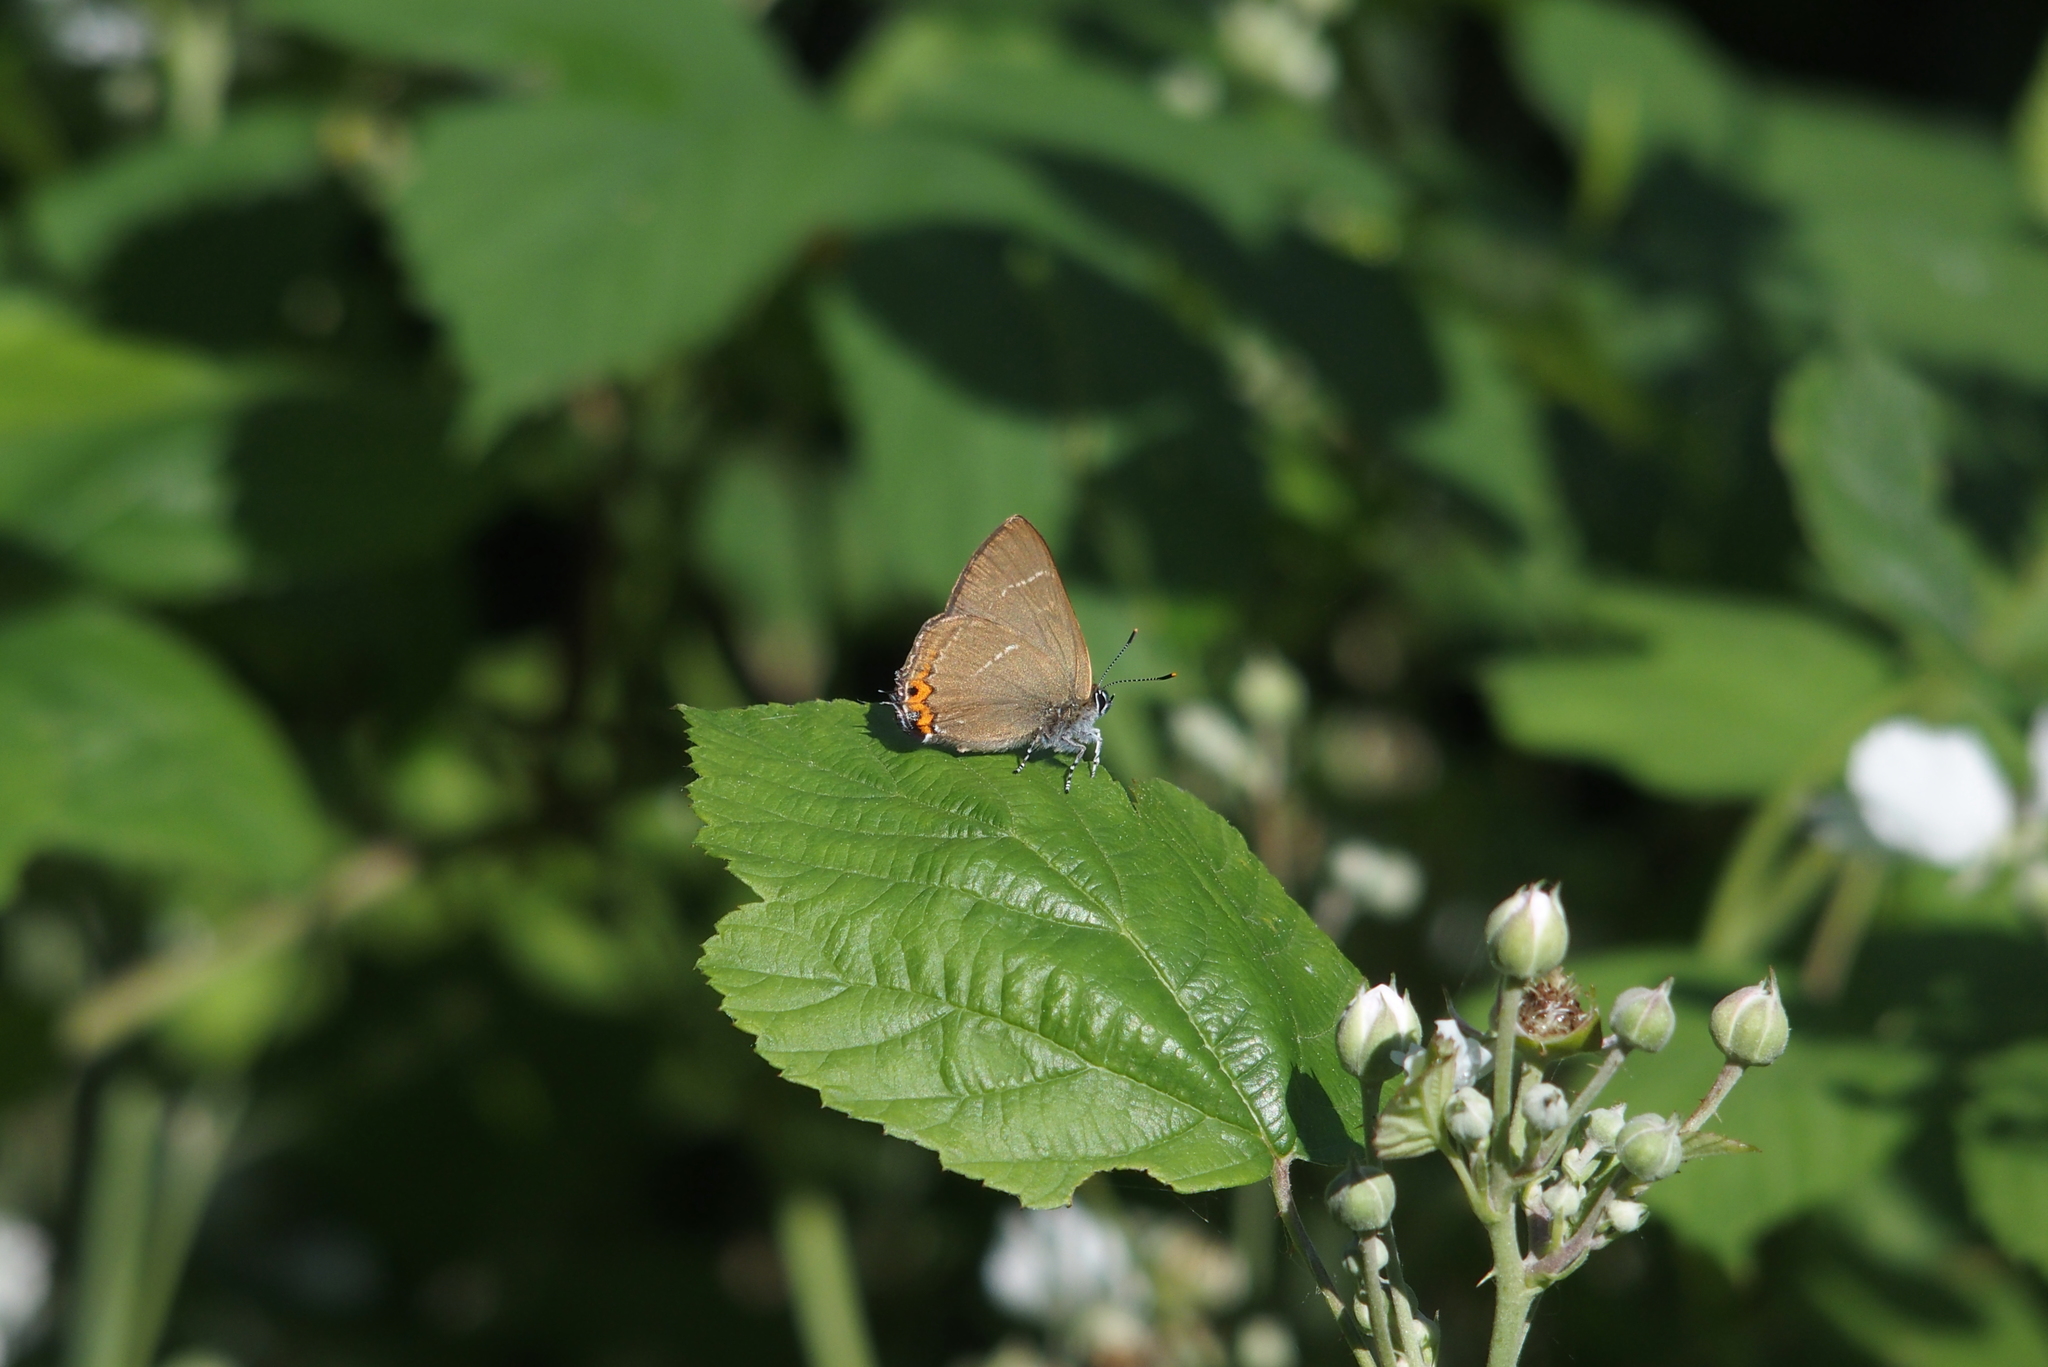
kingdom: Animalia
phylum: Arthropoda
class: Insecta
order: Lepidoptera
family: Lycaenidae
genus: Satyrium
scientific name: Satyrium w-album
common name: White-letter hairstreak
